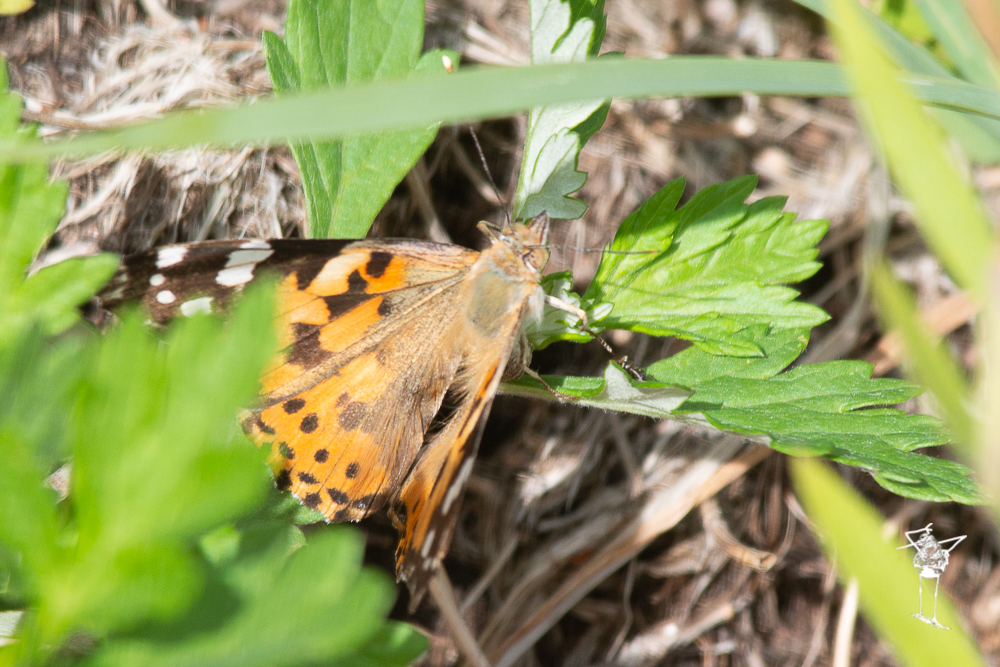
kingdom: Animalia
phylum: Arthropoda
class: Insecta
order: Lepidoptera
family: Nymphalidae
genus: Vanessa
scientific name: Vanessa cardui
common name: Painted lady
